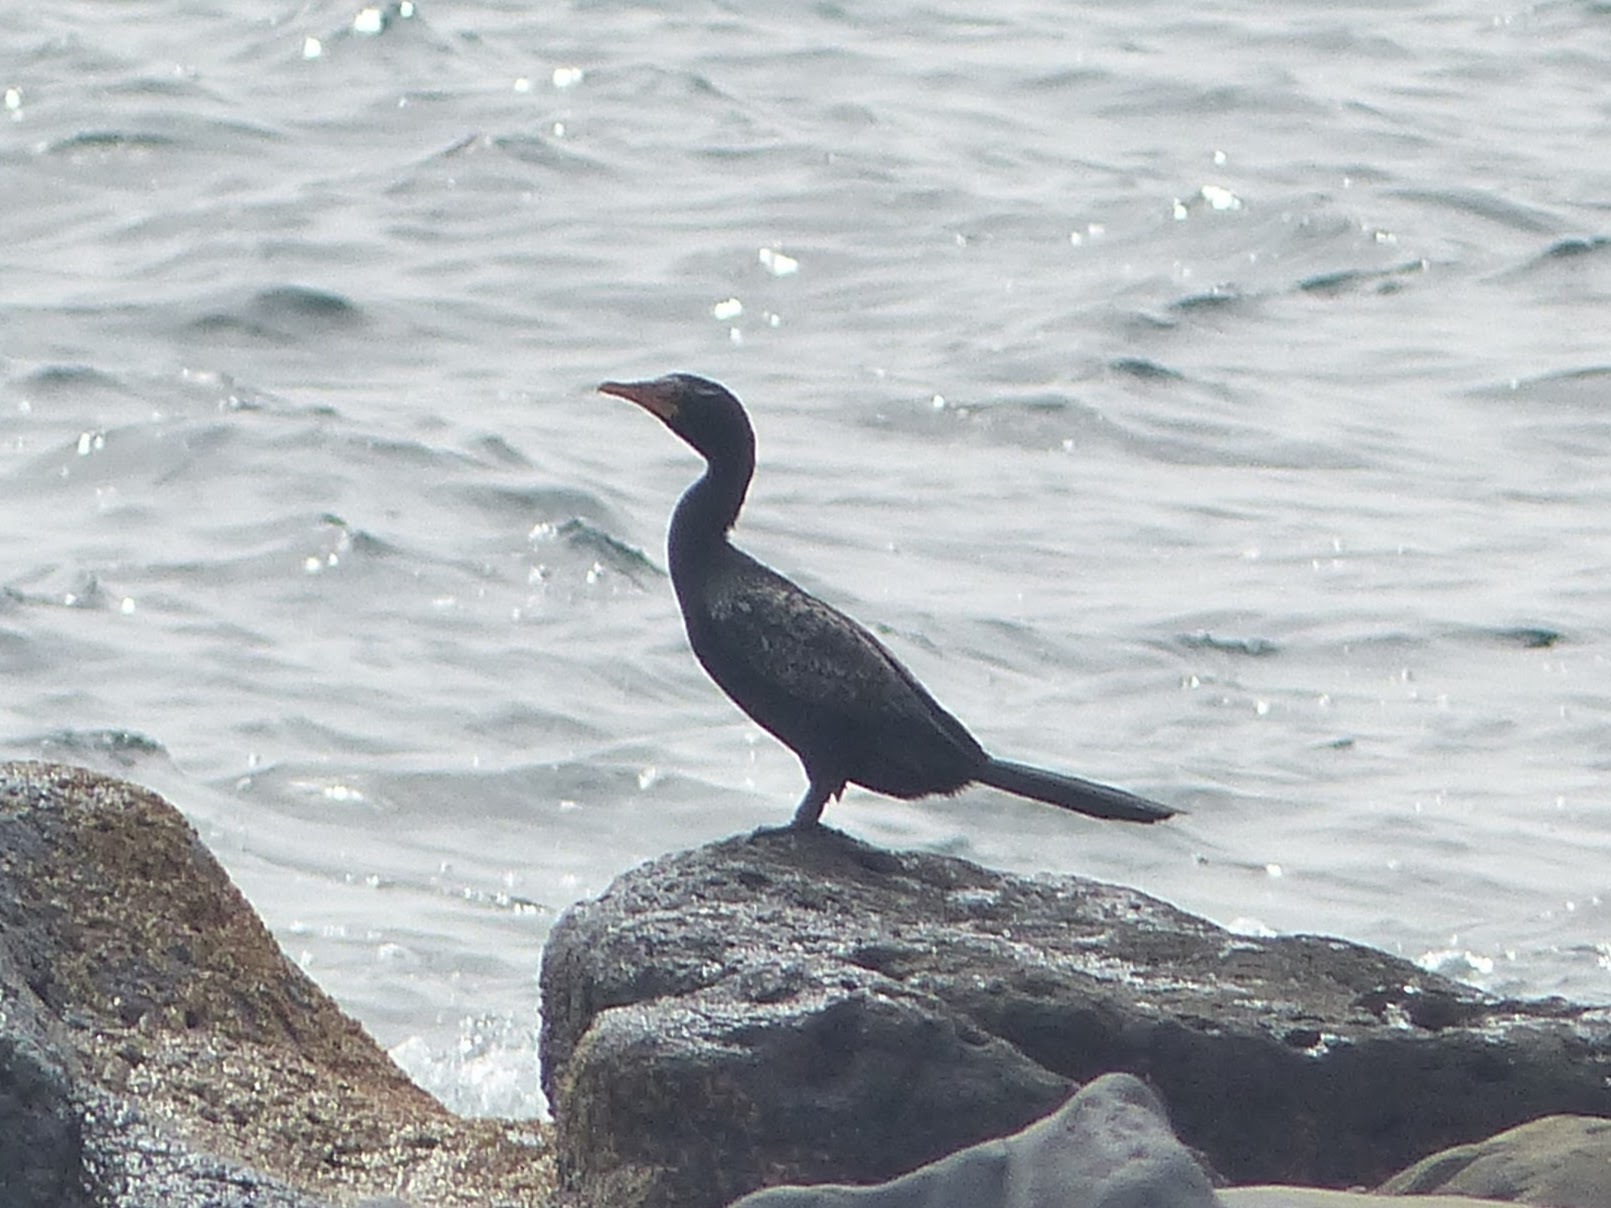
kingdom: Animalia
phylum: Chordata
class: Aves
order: Suliformes
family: Phalacrocoracidae
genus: Microcarbo
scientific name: Microcarbo africanus
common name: Long-tailed cormorant
